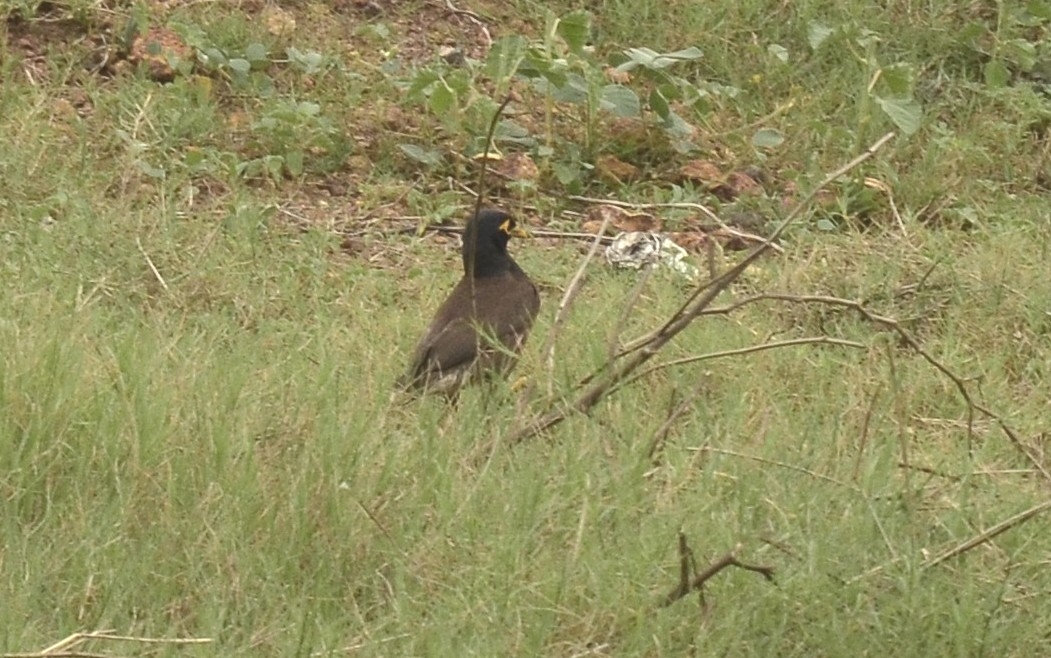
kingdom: Animalia
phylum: Chordata
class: Aves
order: Passeriformes
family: Sturnidae
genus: Acridotheres
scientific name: Acridotheres tristis
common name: Common myna
